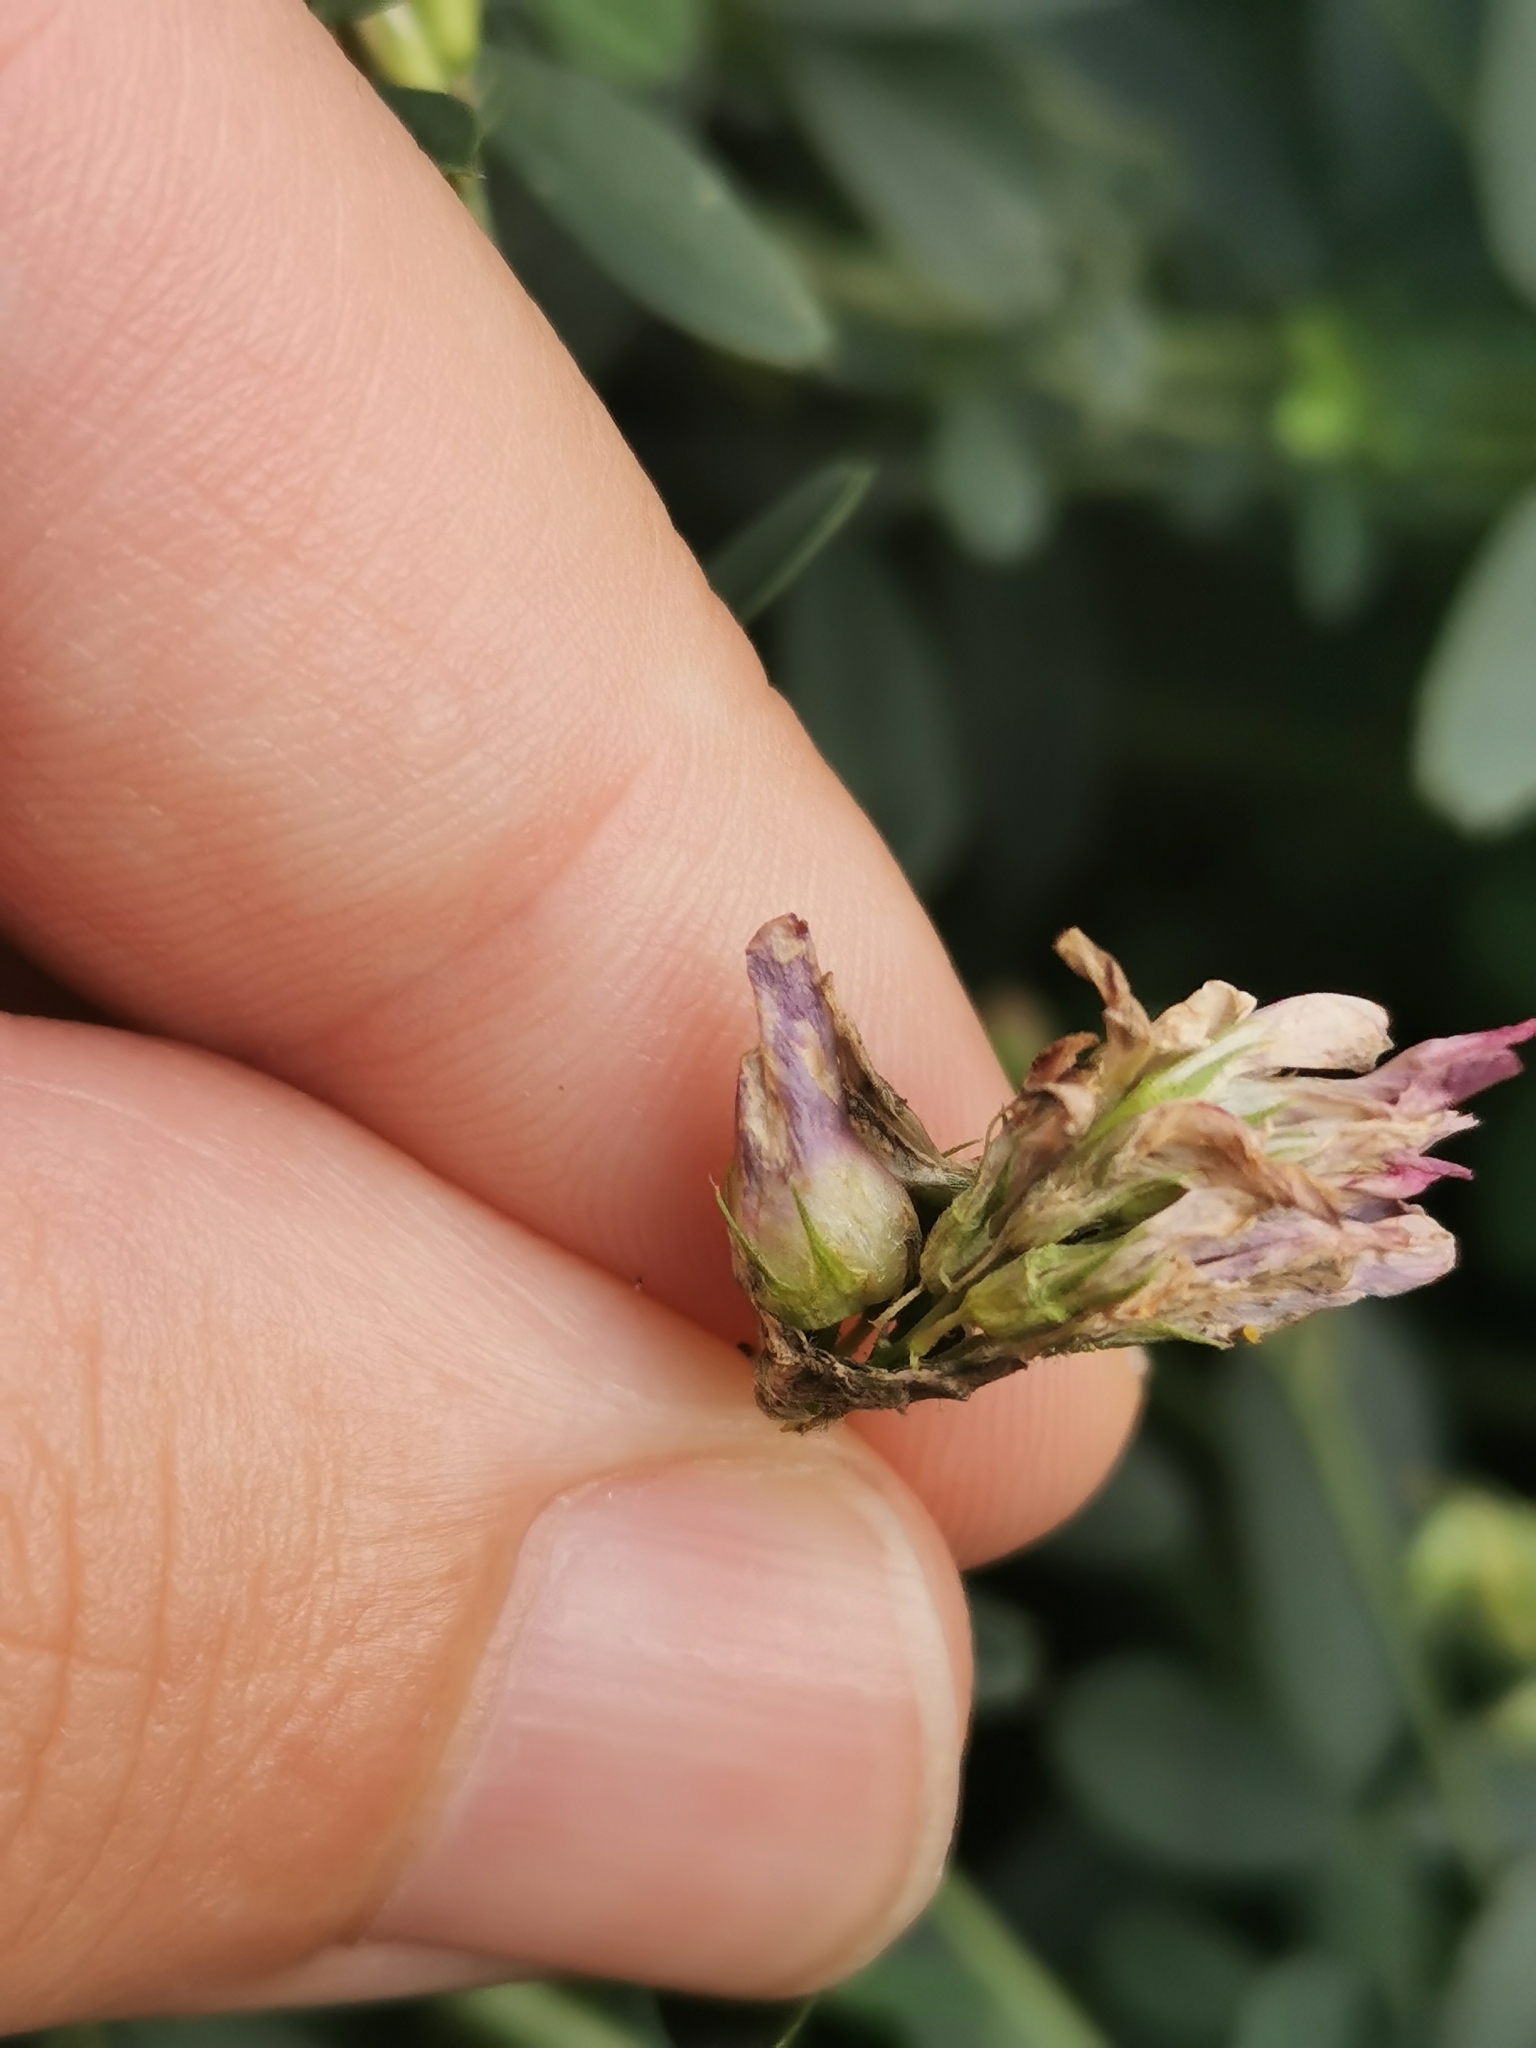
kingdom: Animalia
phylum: Arthropoda
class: Insecta
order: Diptera
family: Cecidomyiidae
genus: Contarinia
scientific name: Contarinia medicaginis
